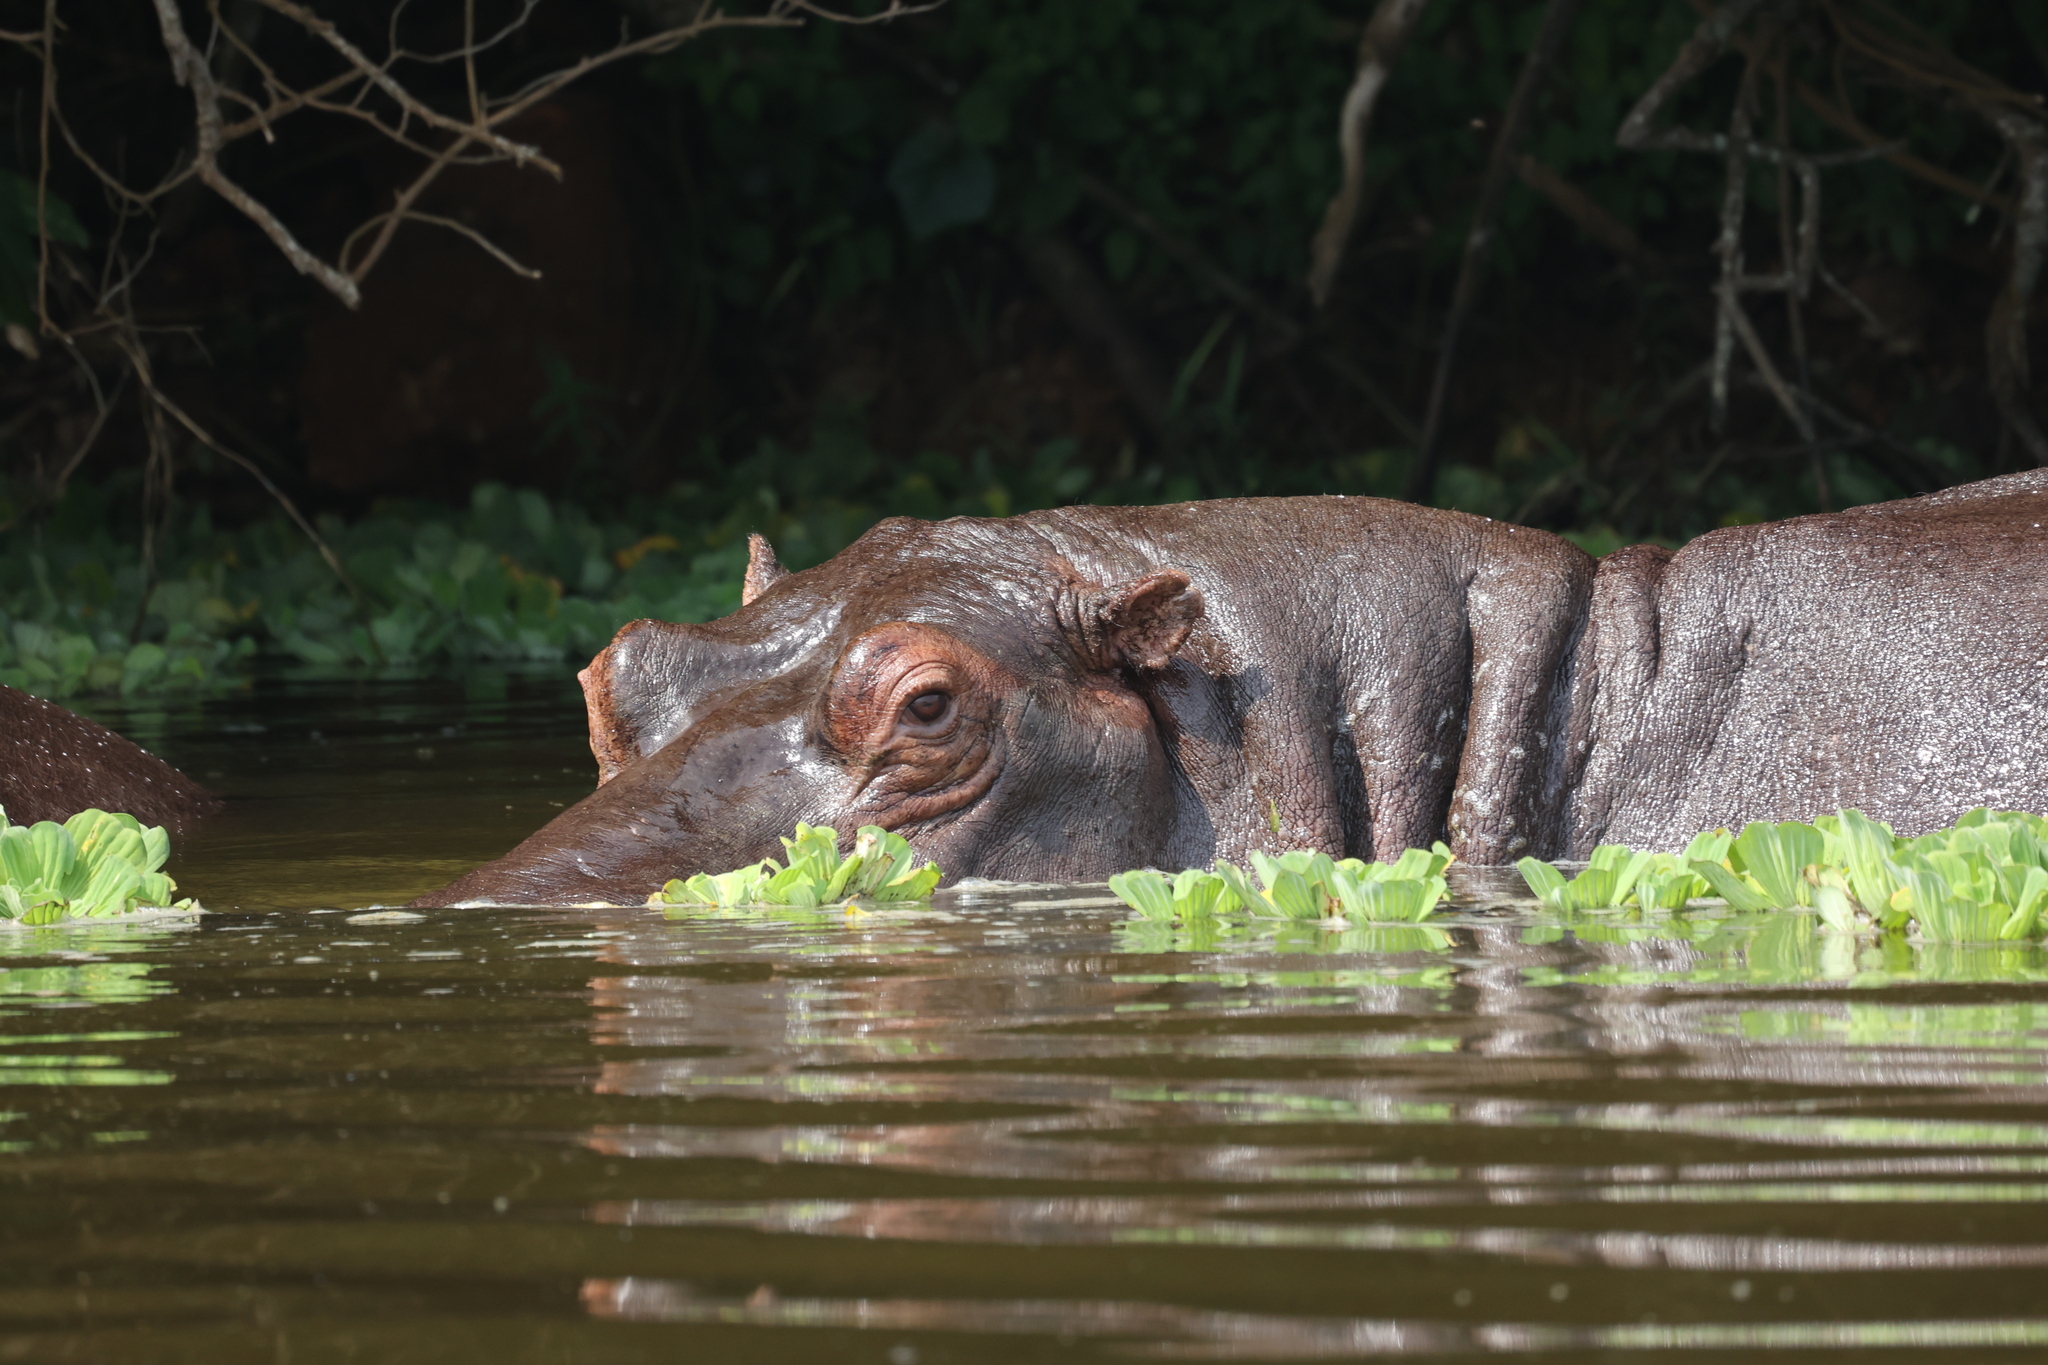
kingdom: Animalia
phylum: Chordata
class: Mammalia
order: Artiodactyla
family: Hippopotamidae
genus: Hippopotamus
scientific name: Hippopotamus amphibius
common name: Common hippopotamus
